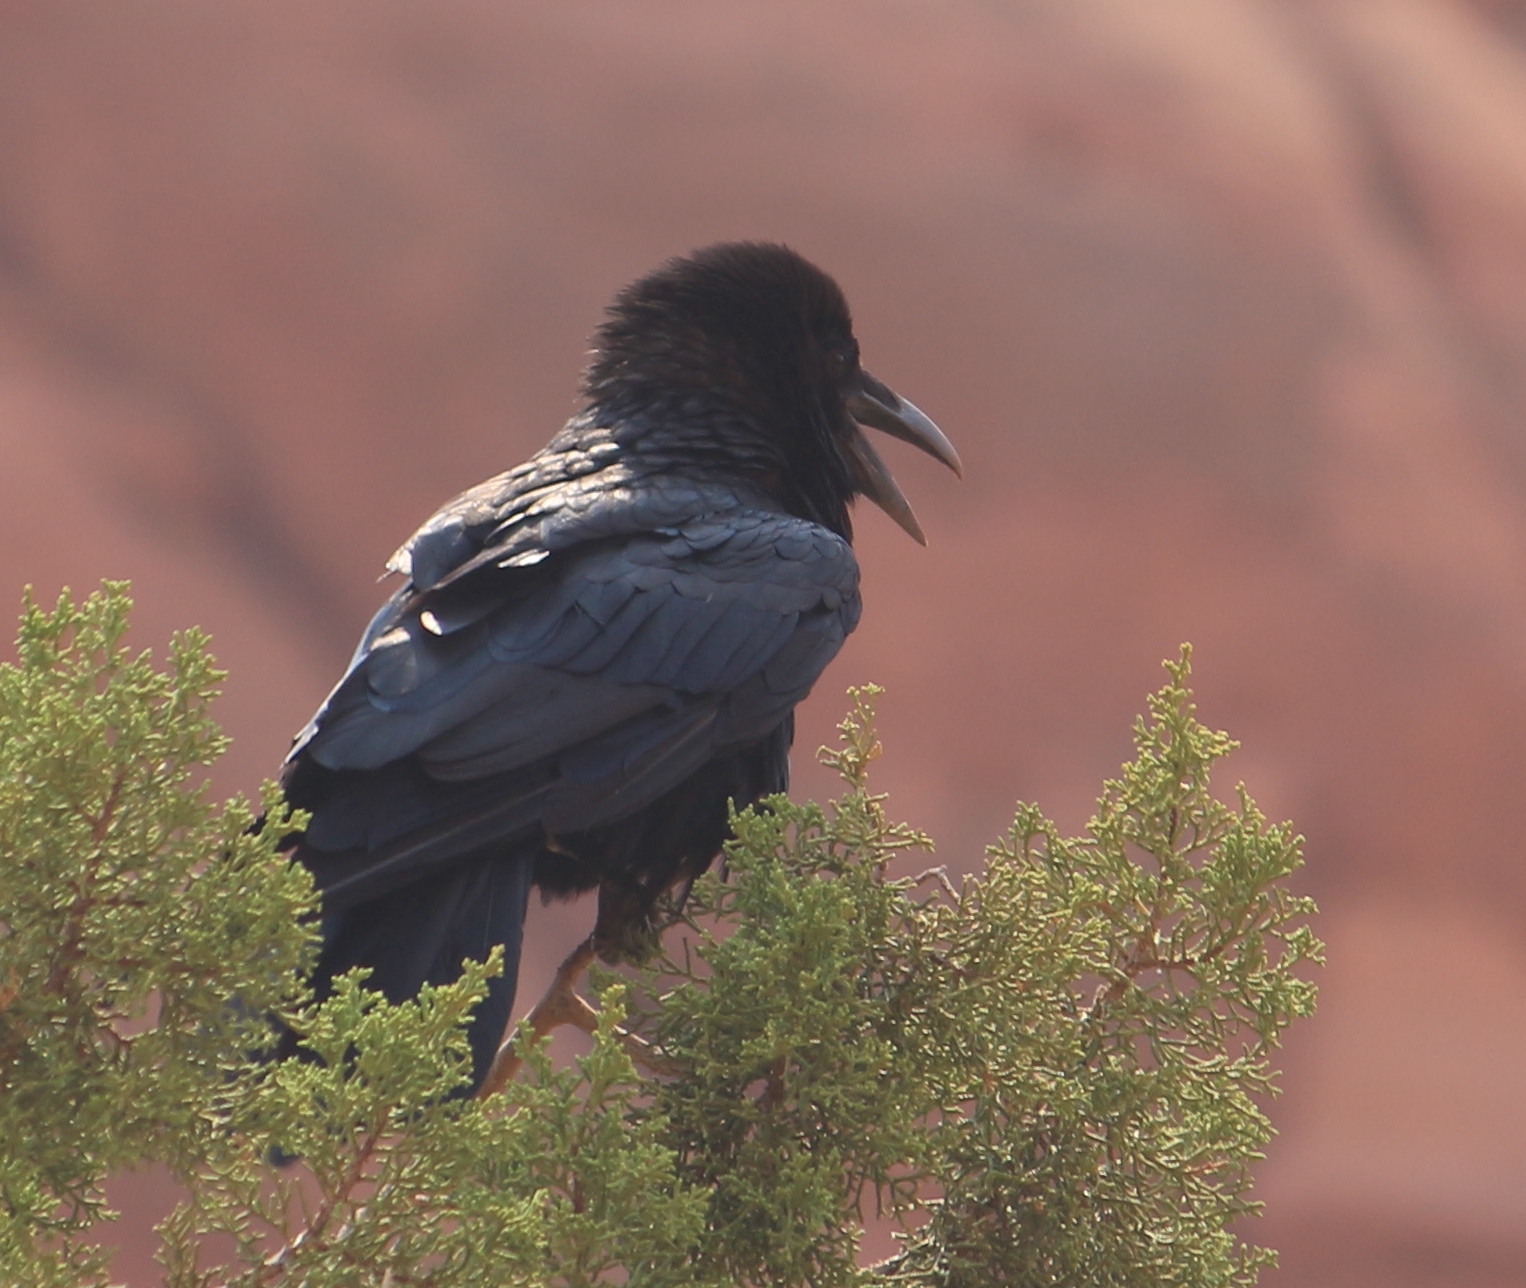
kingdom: Animalia
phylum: Chordata
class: Aves
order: Passeriformes
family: Corvidae
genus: Corvus
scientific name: Corvus corax
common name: Common raven
